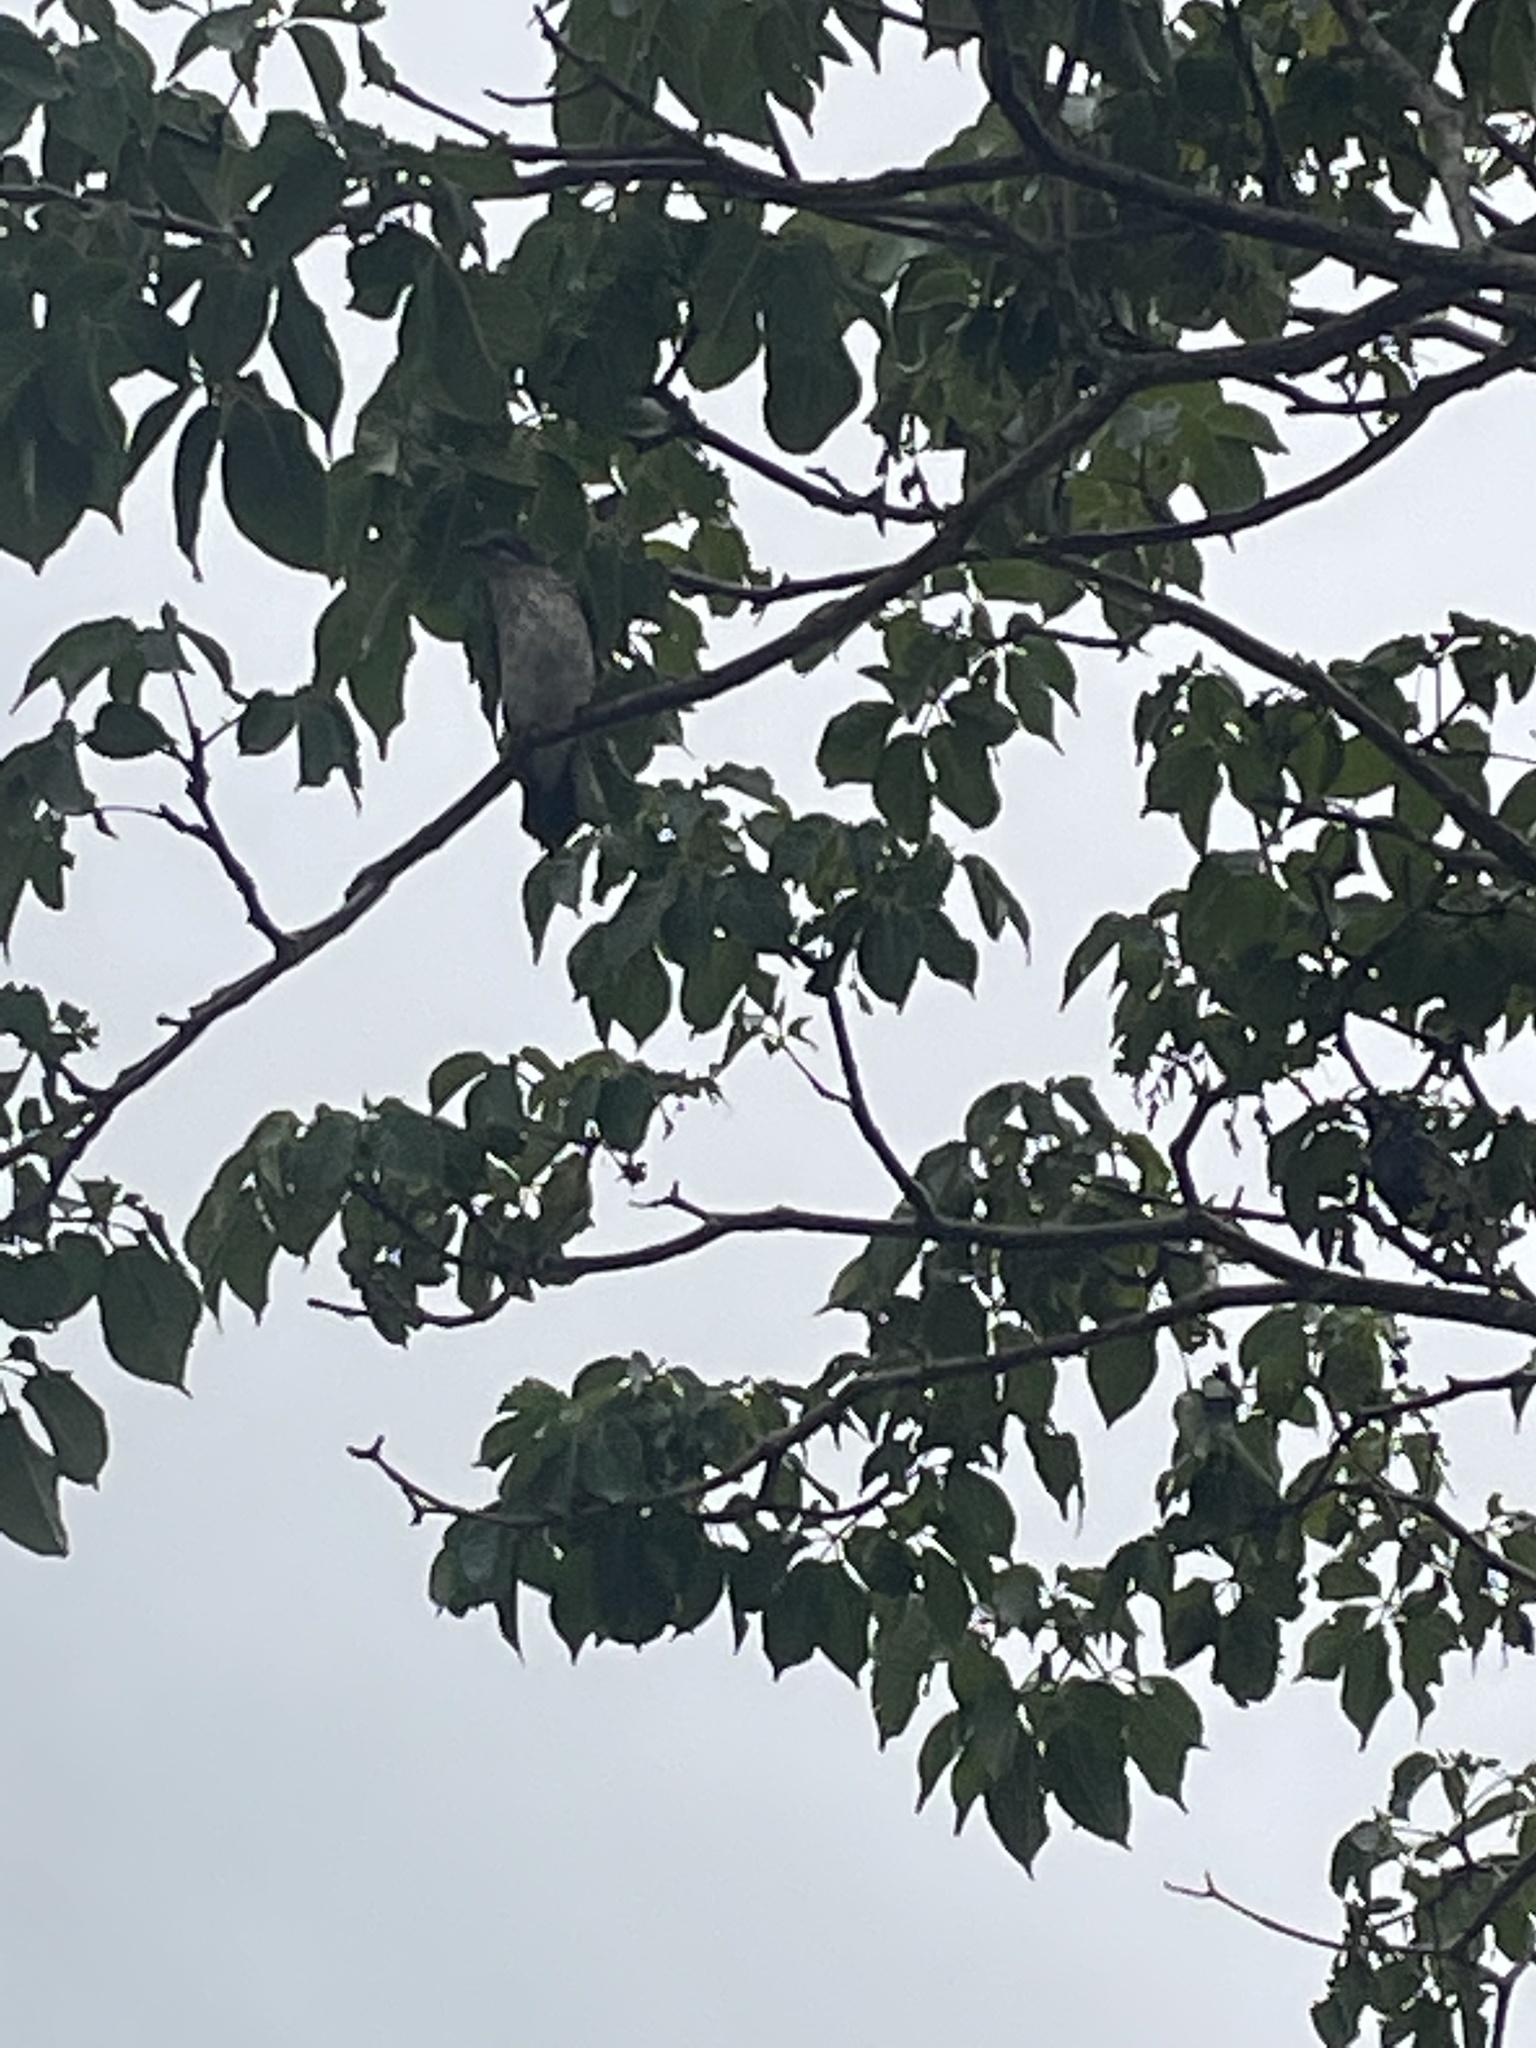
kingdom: Animalia
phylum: Chordata
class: Aves
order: Passeriformes
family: Sturnidae
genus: Aplonis
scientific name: Aplonis metallica
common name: Metallic starling
